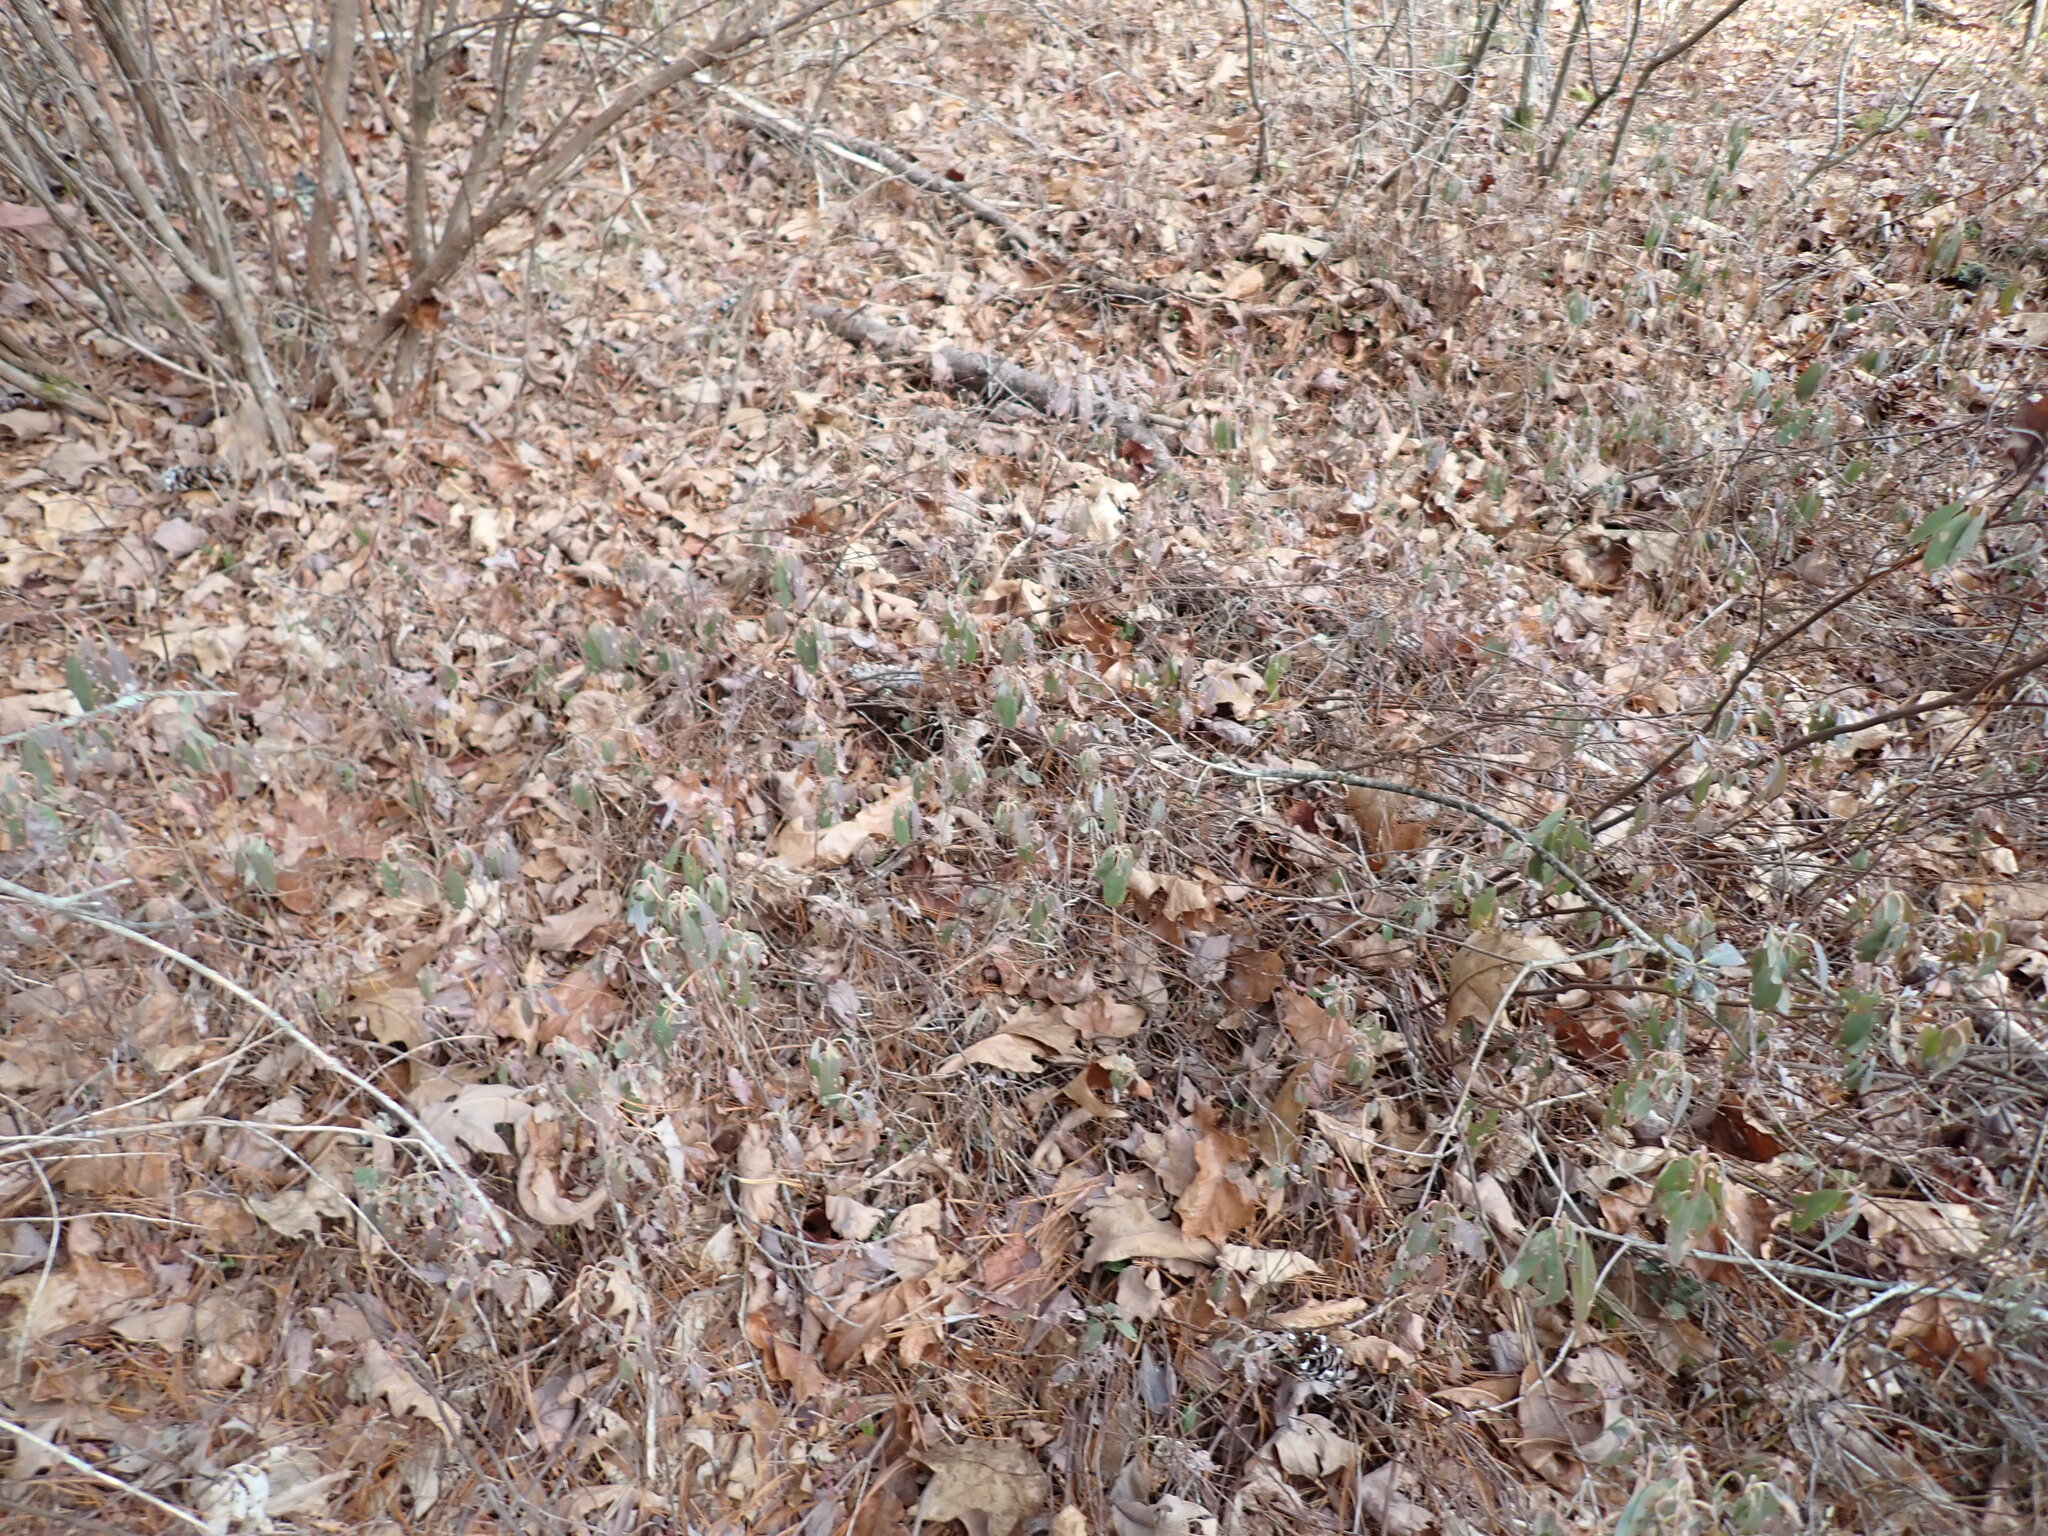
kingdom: Plantae
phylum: Tracheophyta
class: Magnoliopsida
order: Ericales
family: Ericaceae
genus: Kalmia
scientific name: Kalmia angustifolia
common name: Sheep-laurel
